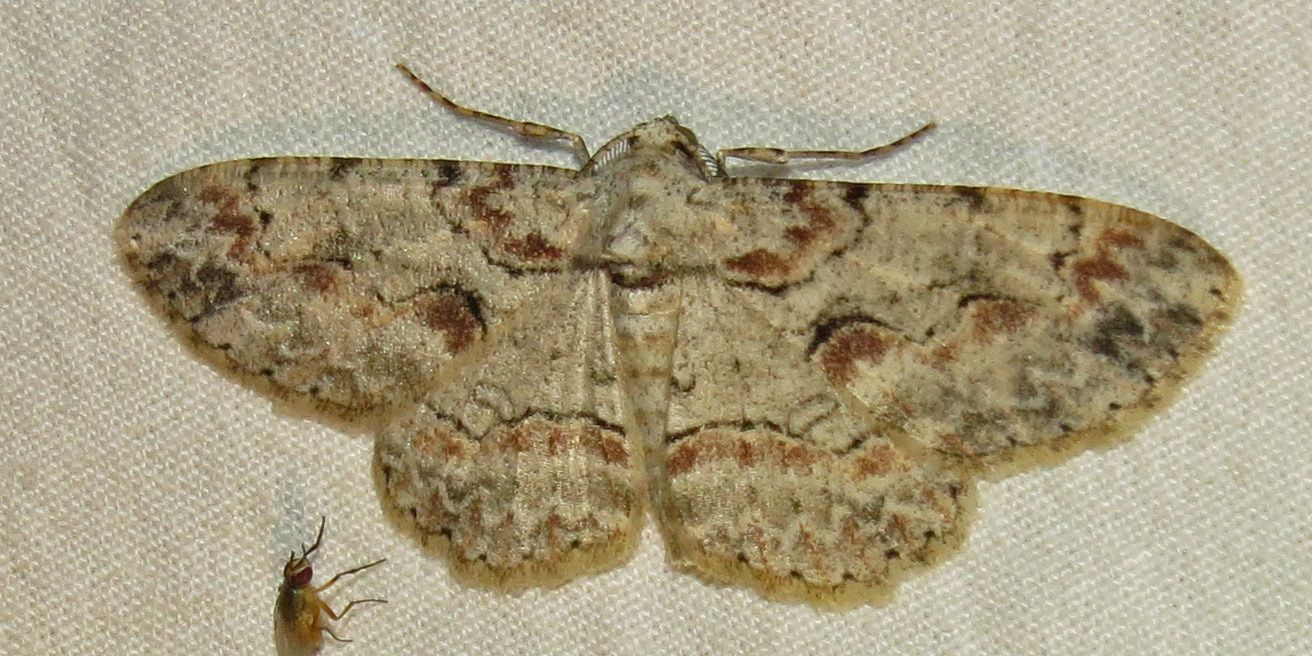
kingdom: Animalia
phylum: Arthropoda
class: Insecta
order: Lepidoptera
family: Geometridae
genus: Iridopsis
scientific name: Iridopsis defectaria
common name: Brown-shaded gray
